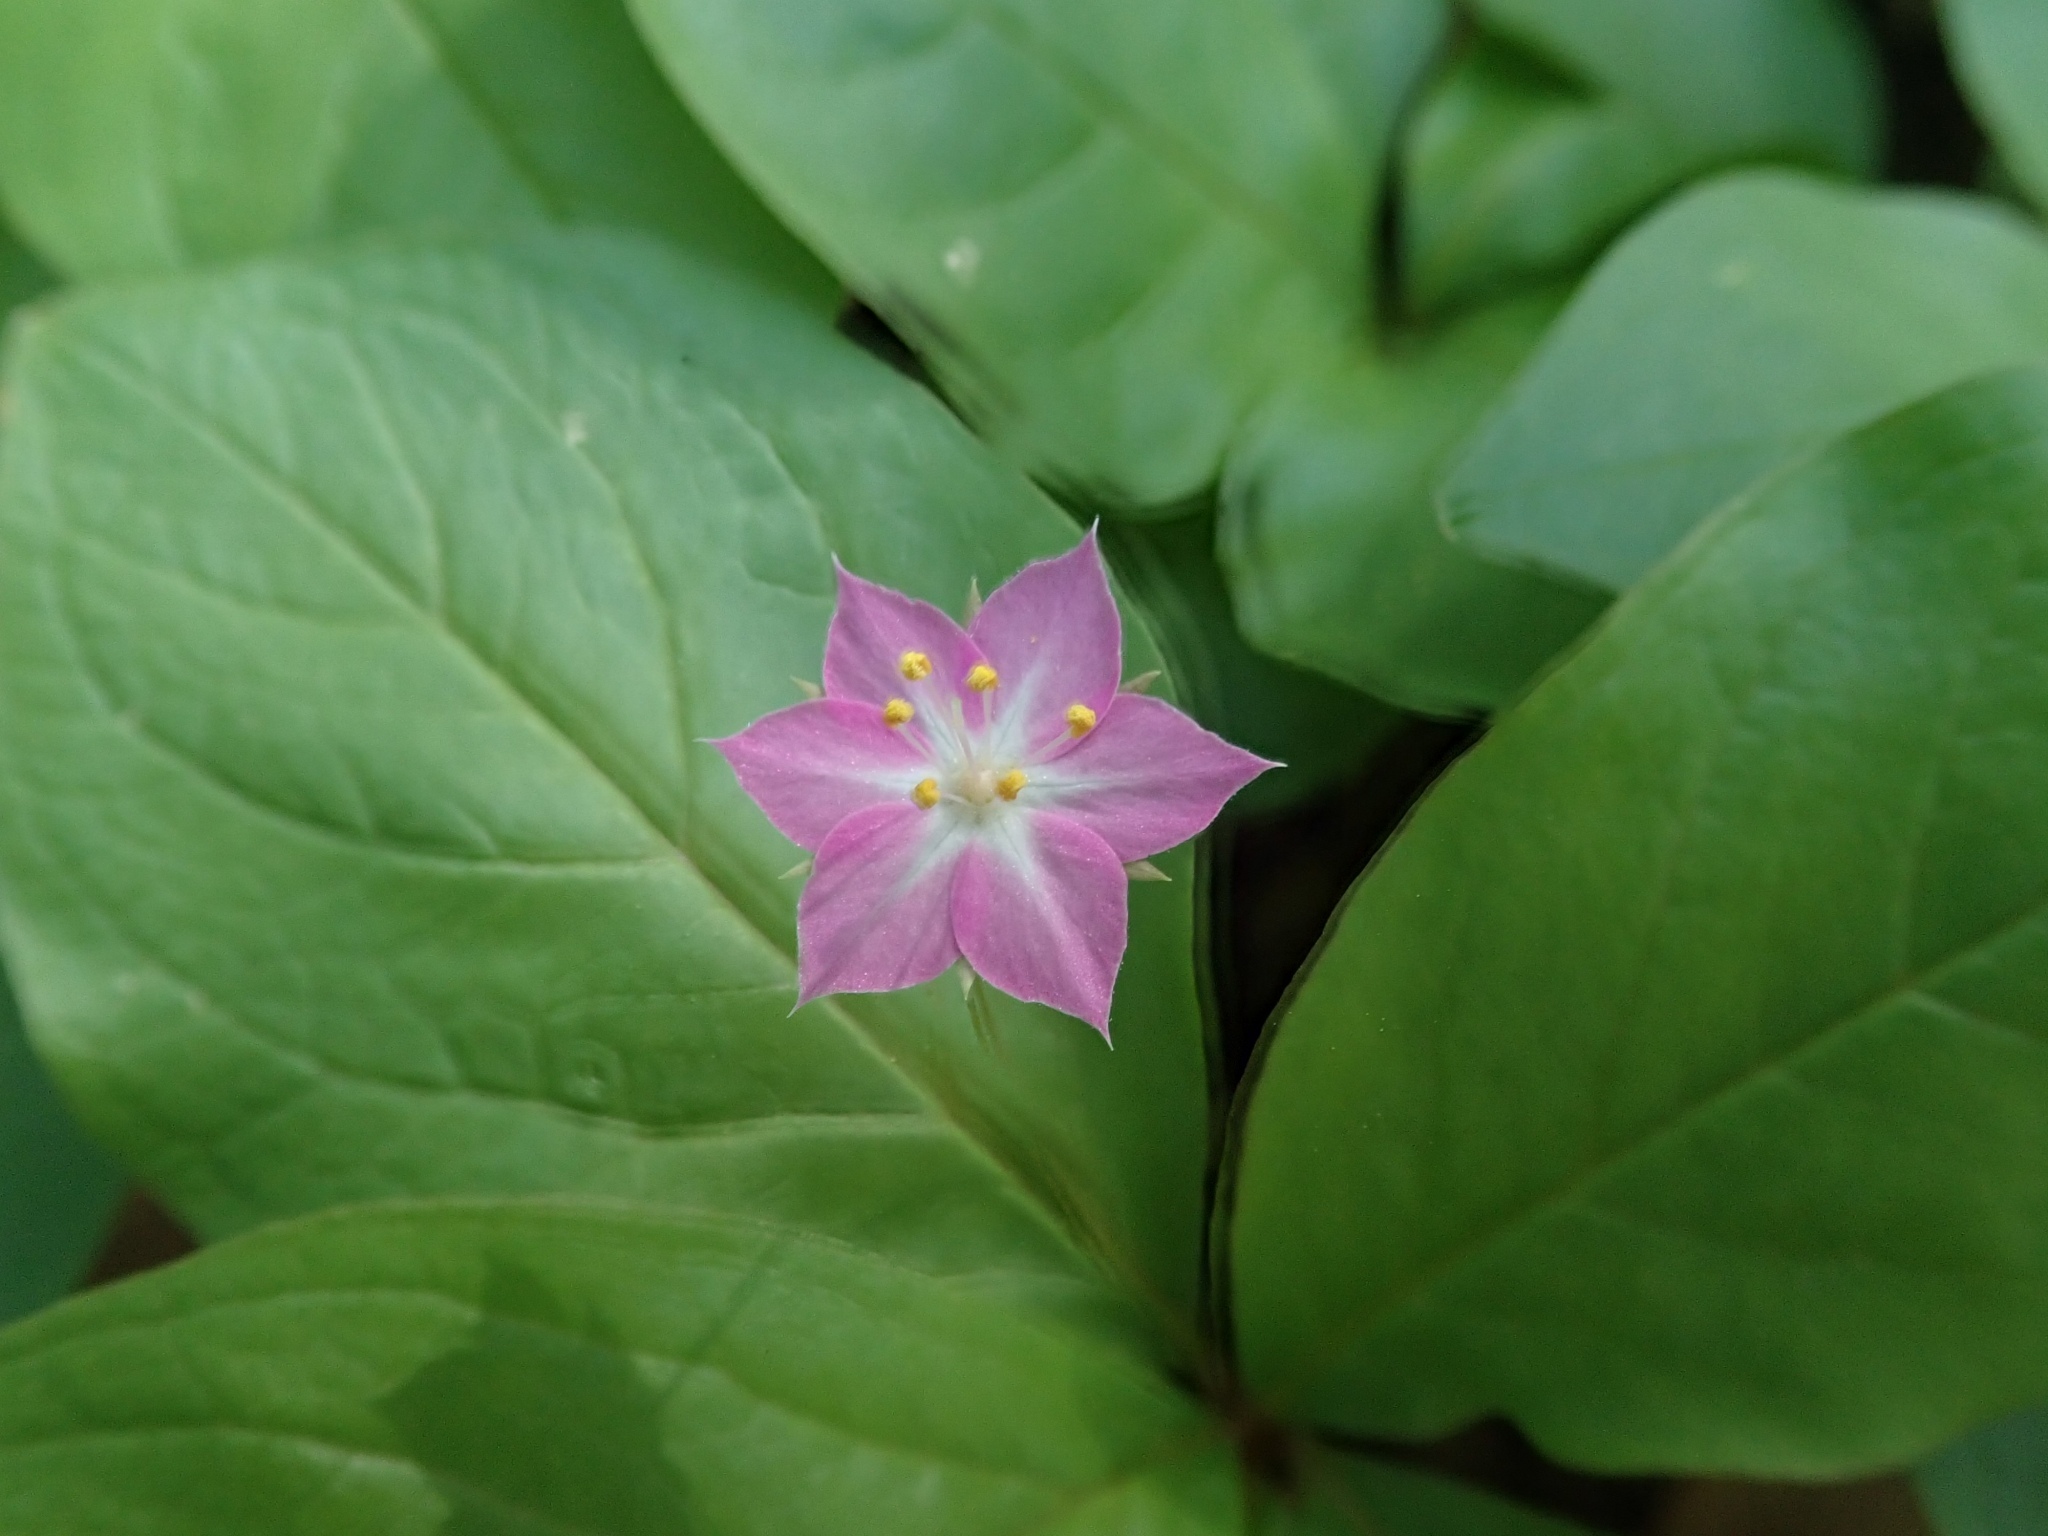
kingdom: Plantae
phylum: Tracheophyta
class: Magnoliopsida
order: Ericales
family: Primulaceae
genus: Lysimachia
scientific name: Lysimachia latifolia
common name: Pacific starflower
